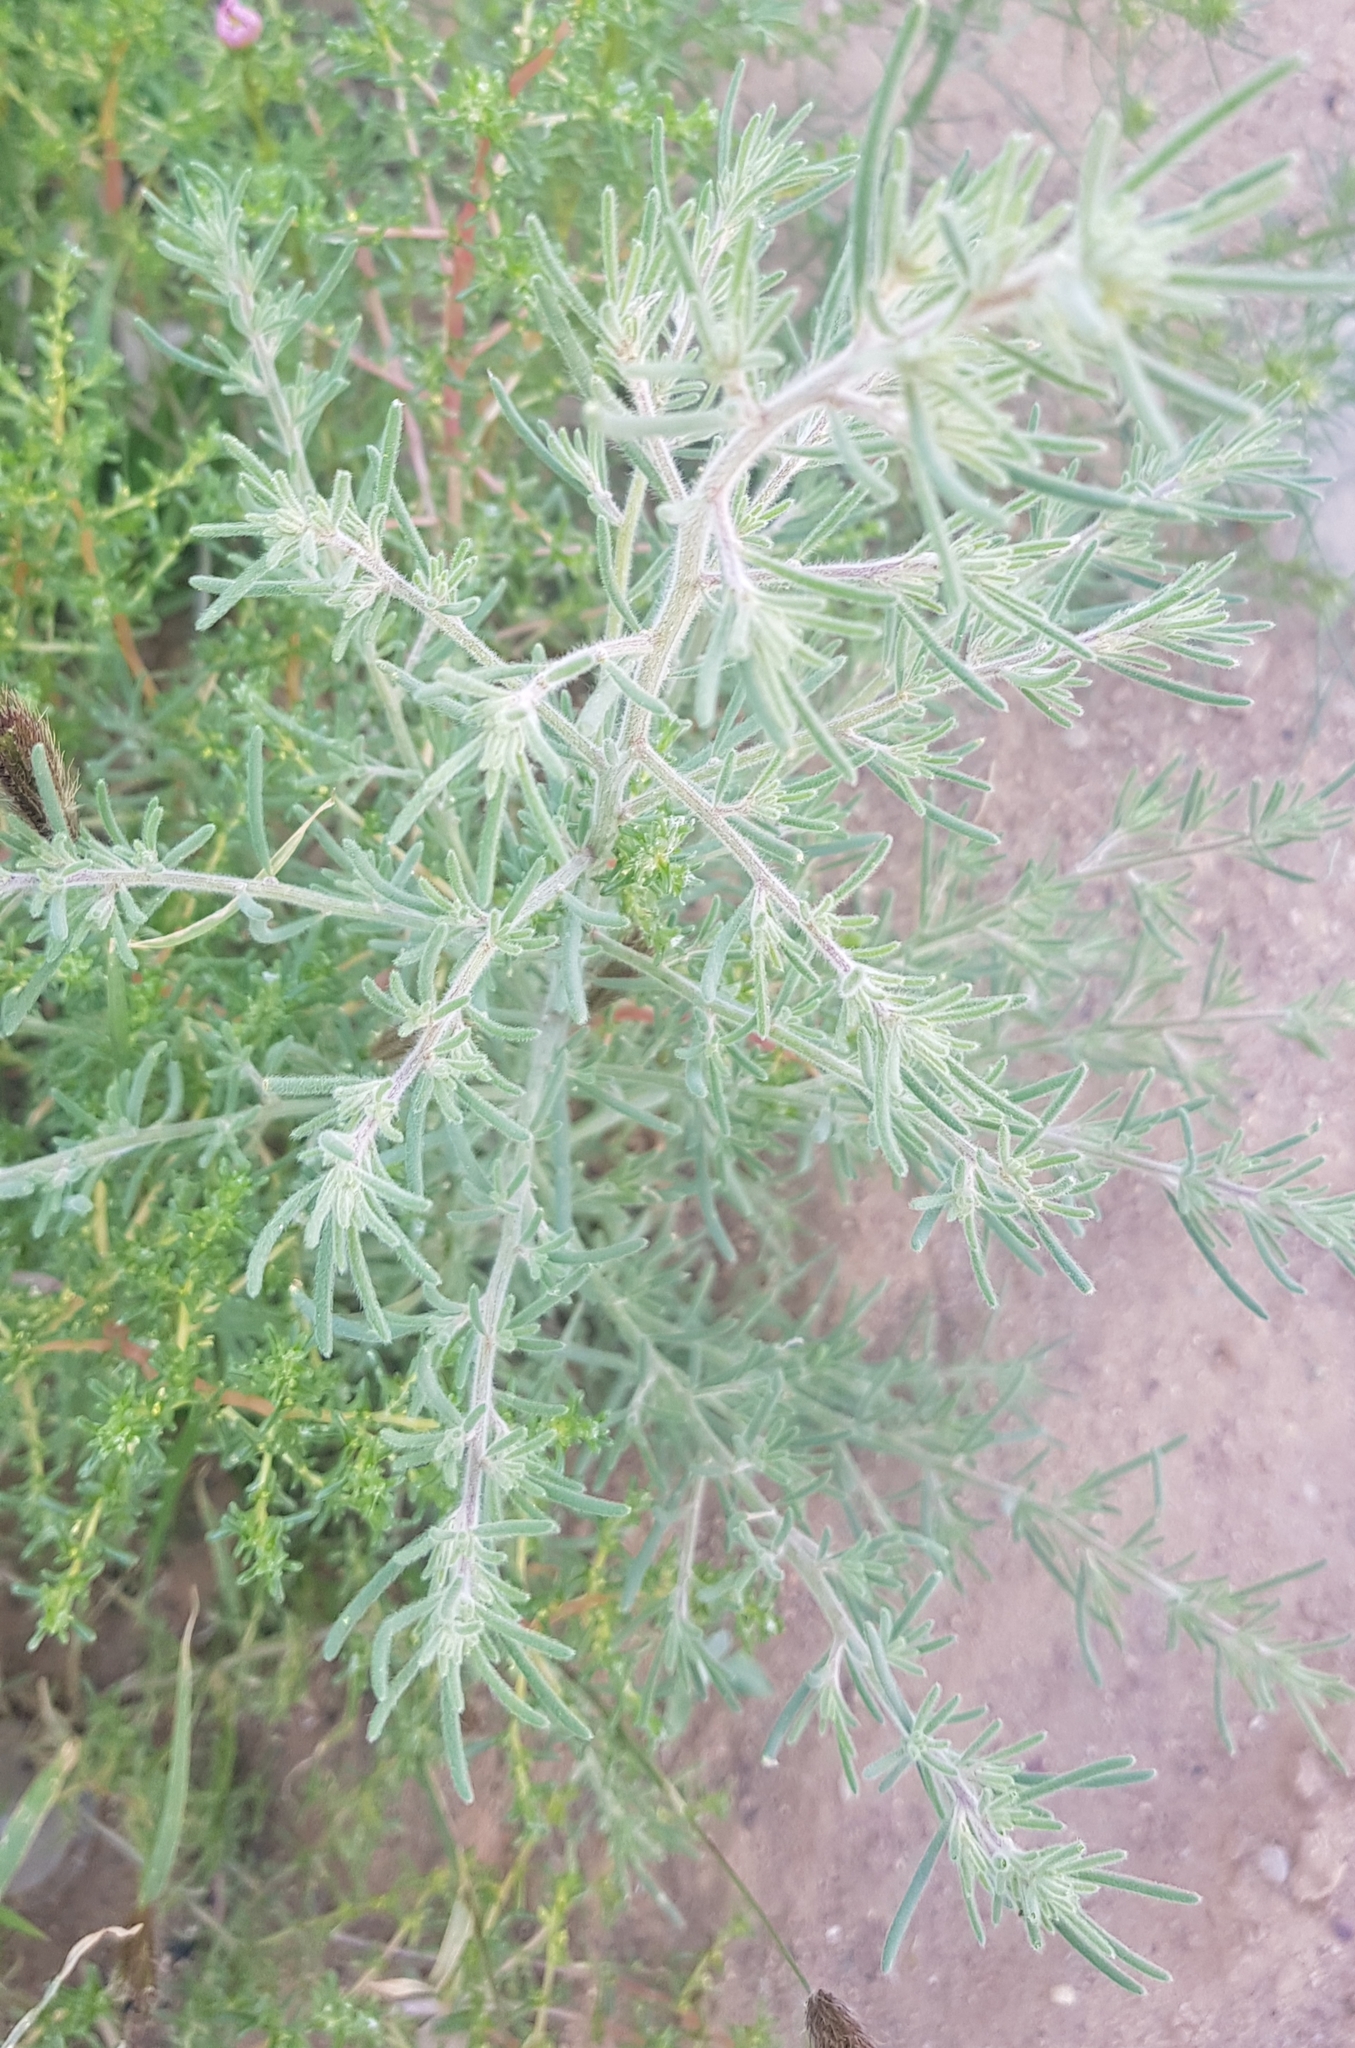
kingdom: Plantae
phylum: Tracheophyta
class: Magnoliopsida
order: Caryophyllales
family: Amaranthaceae
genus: Grubovia
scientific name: Grubovia dasyphylla
